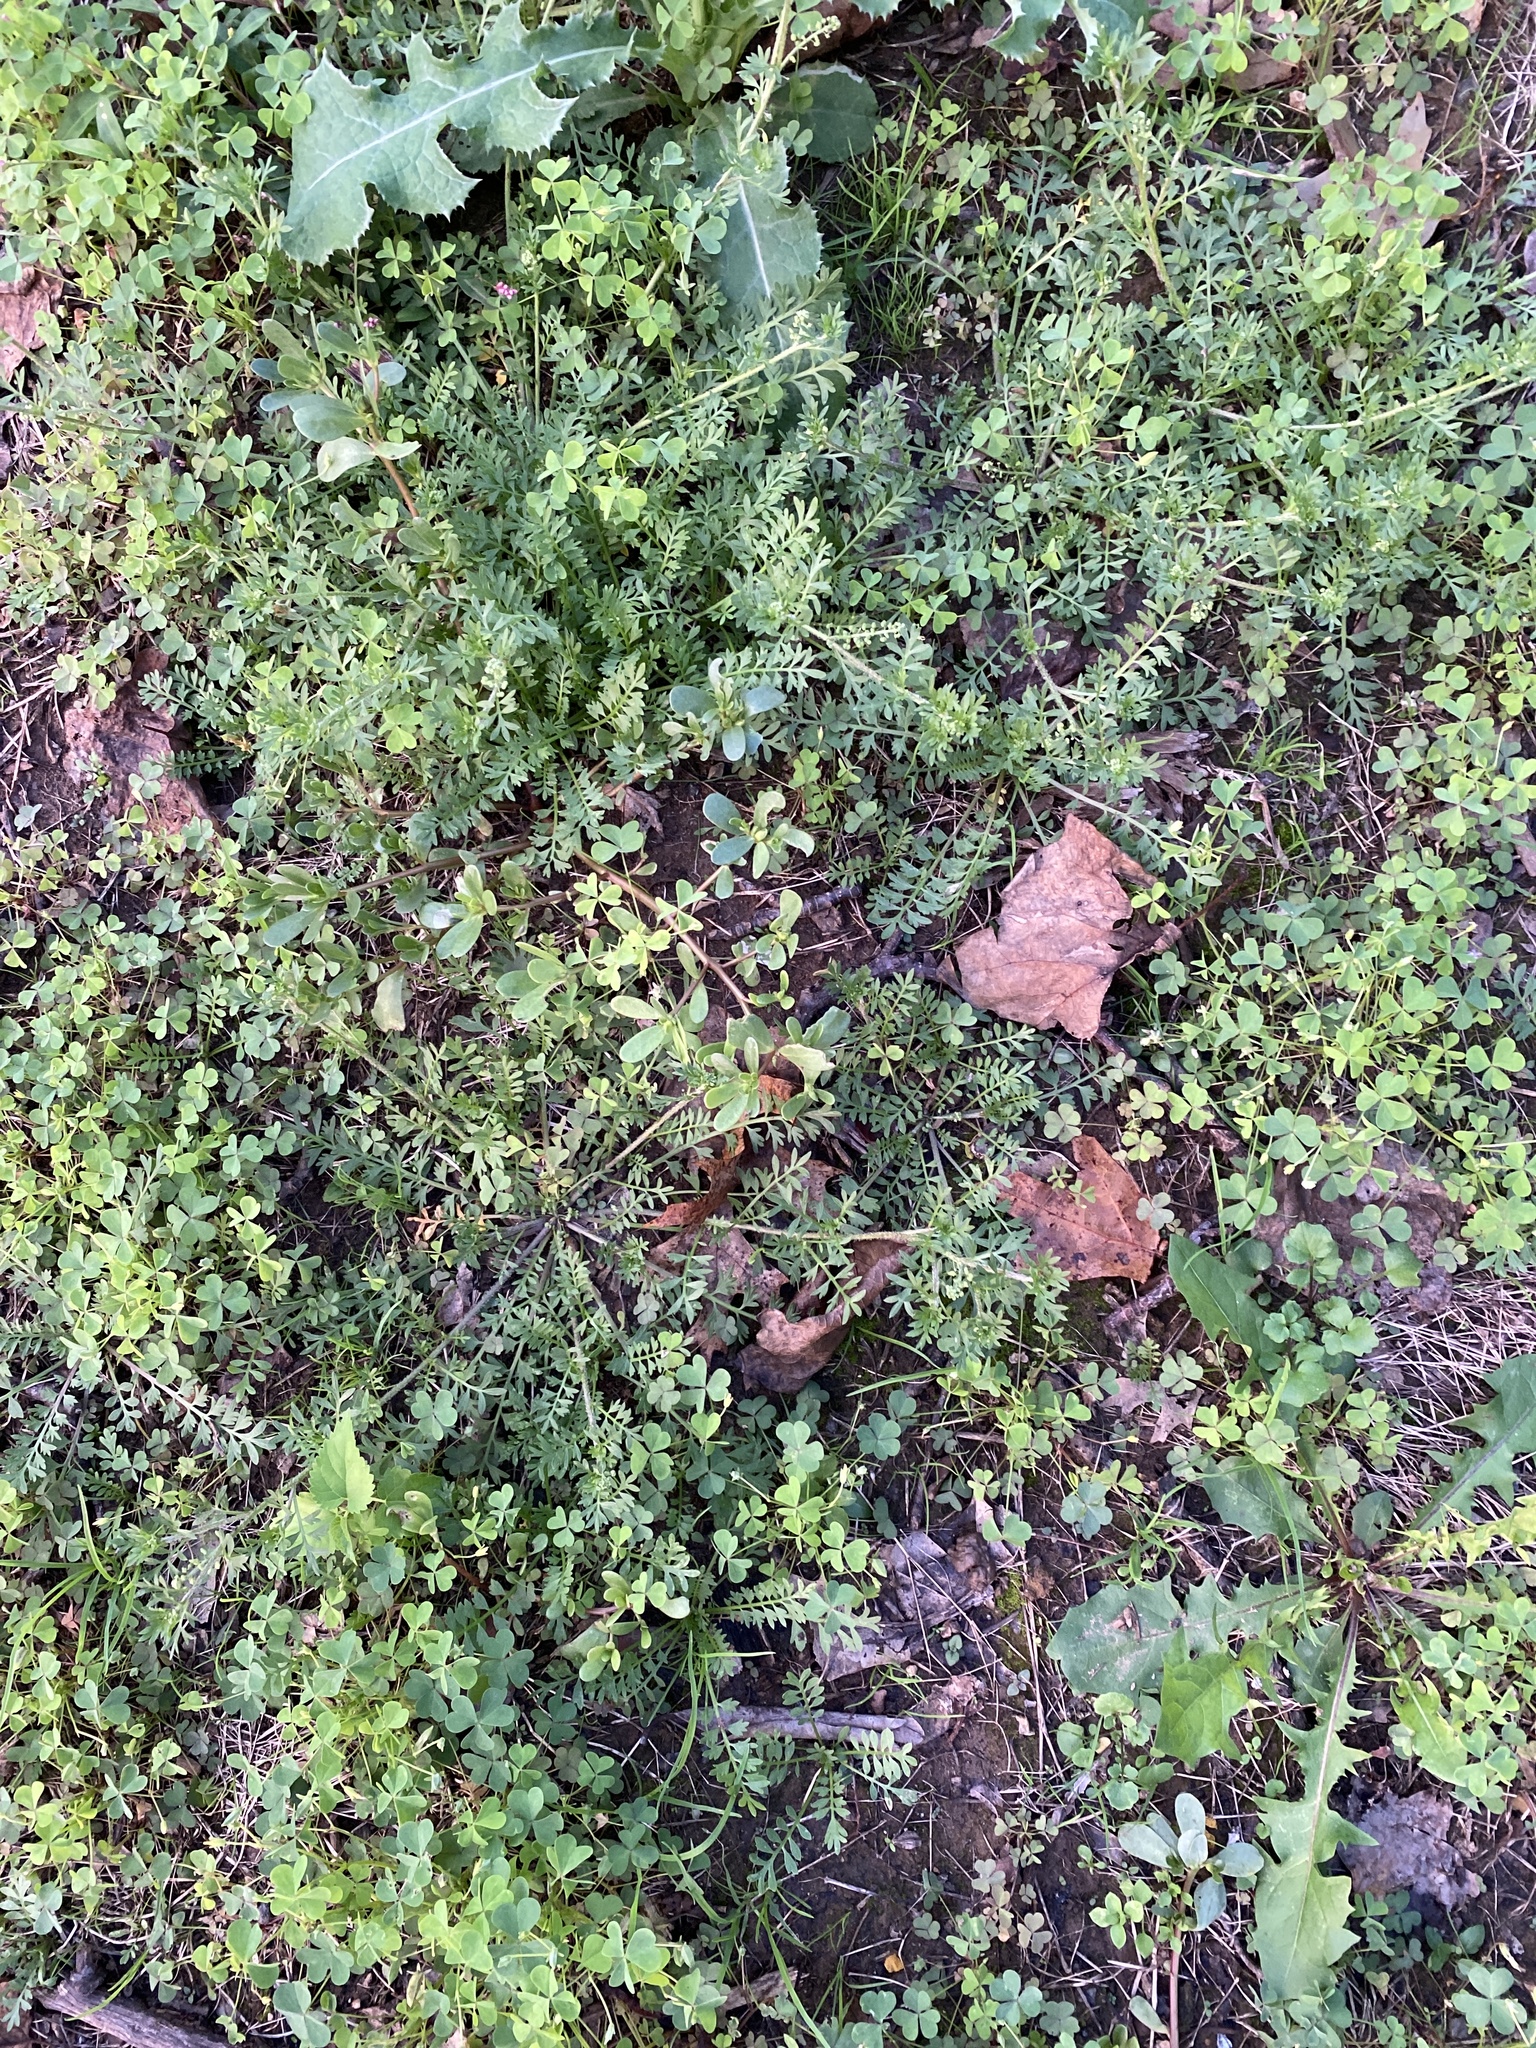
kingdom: Plantae
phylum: Tracheophyta
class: Magnoliopsida
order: Brassicales
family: Brassicaceae
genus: Lepidium
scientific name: Lepidium didymum
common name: Lesser swinecress
